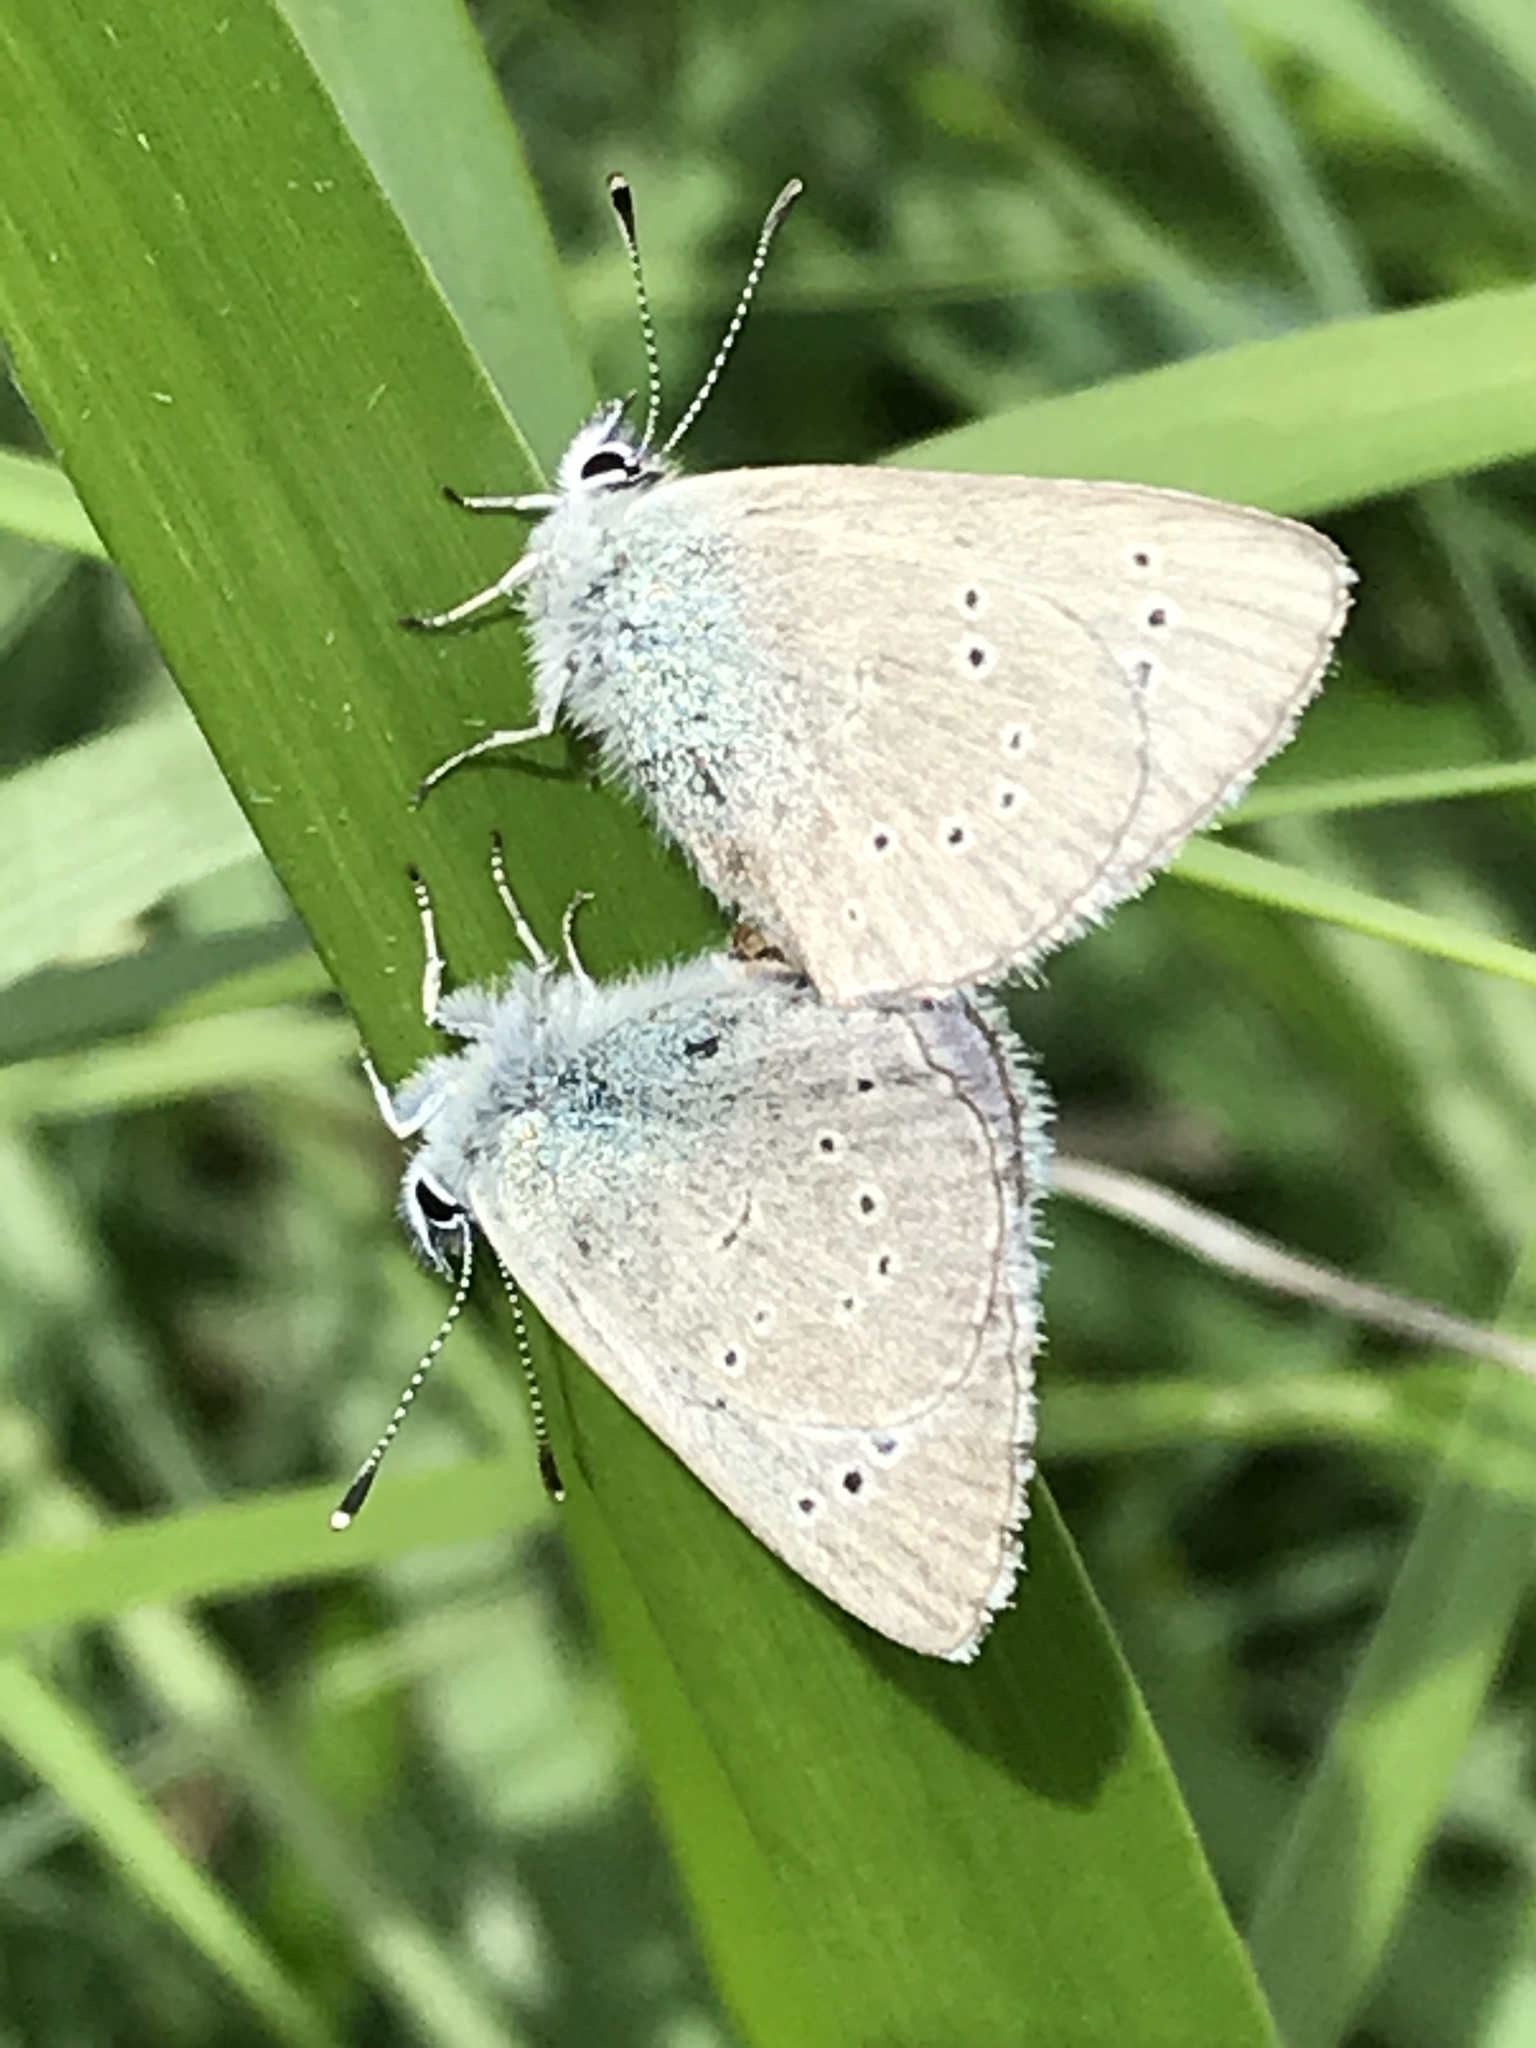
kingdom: Animalia
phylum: Arthropoda
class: Insecta
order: Lepidoptera
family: Lycaenidae
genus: Glaucopsyche
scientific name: Glaucopsyche lygdamus
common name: Silvery blue
